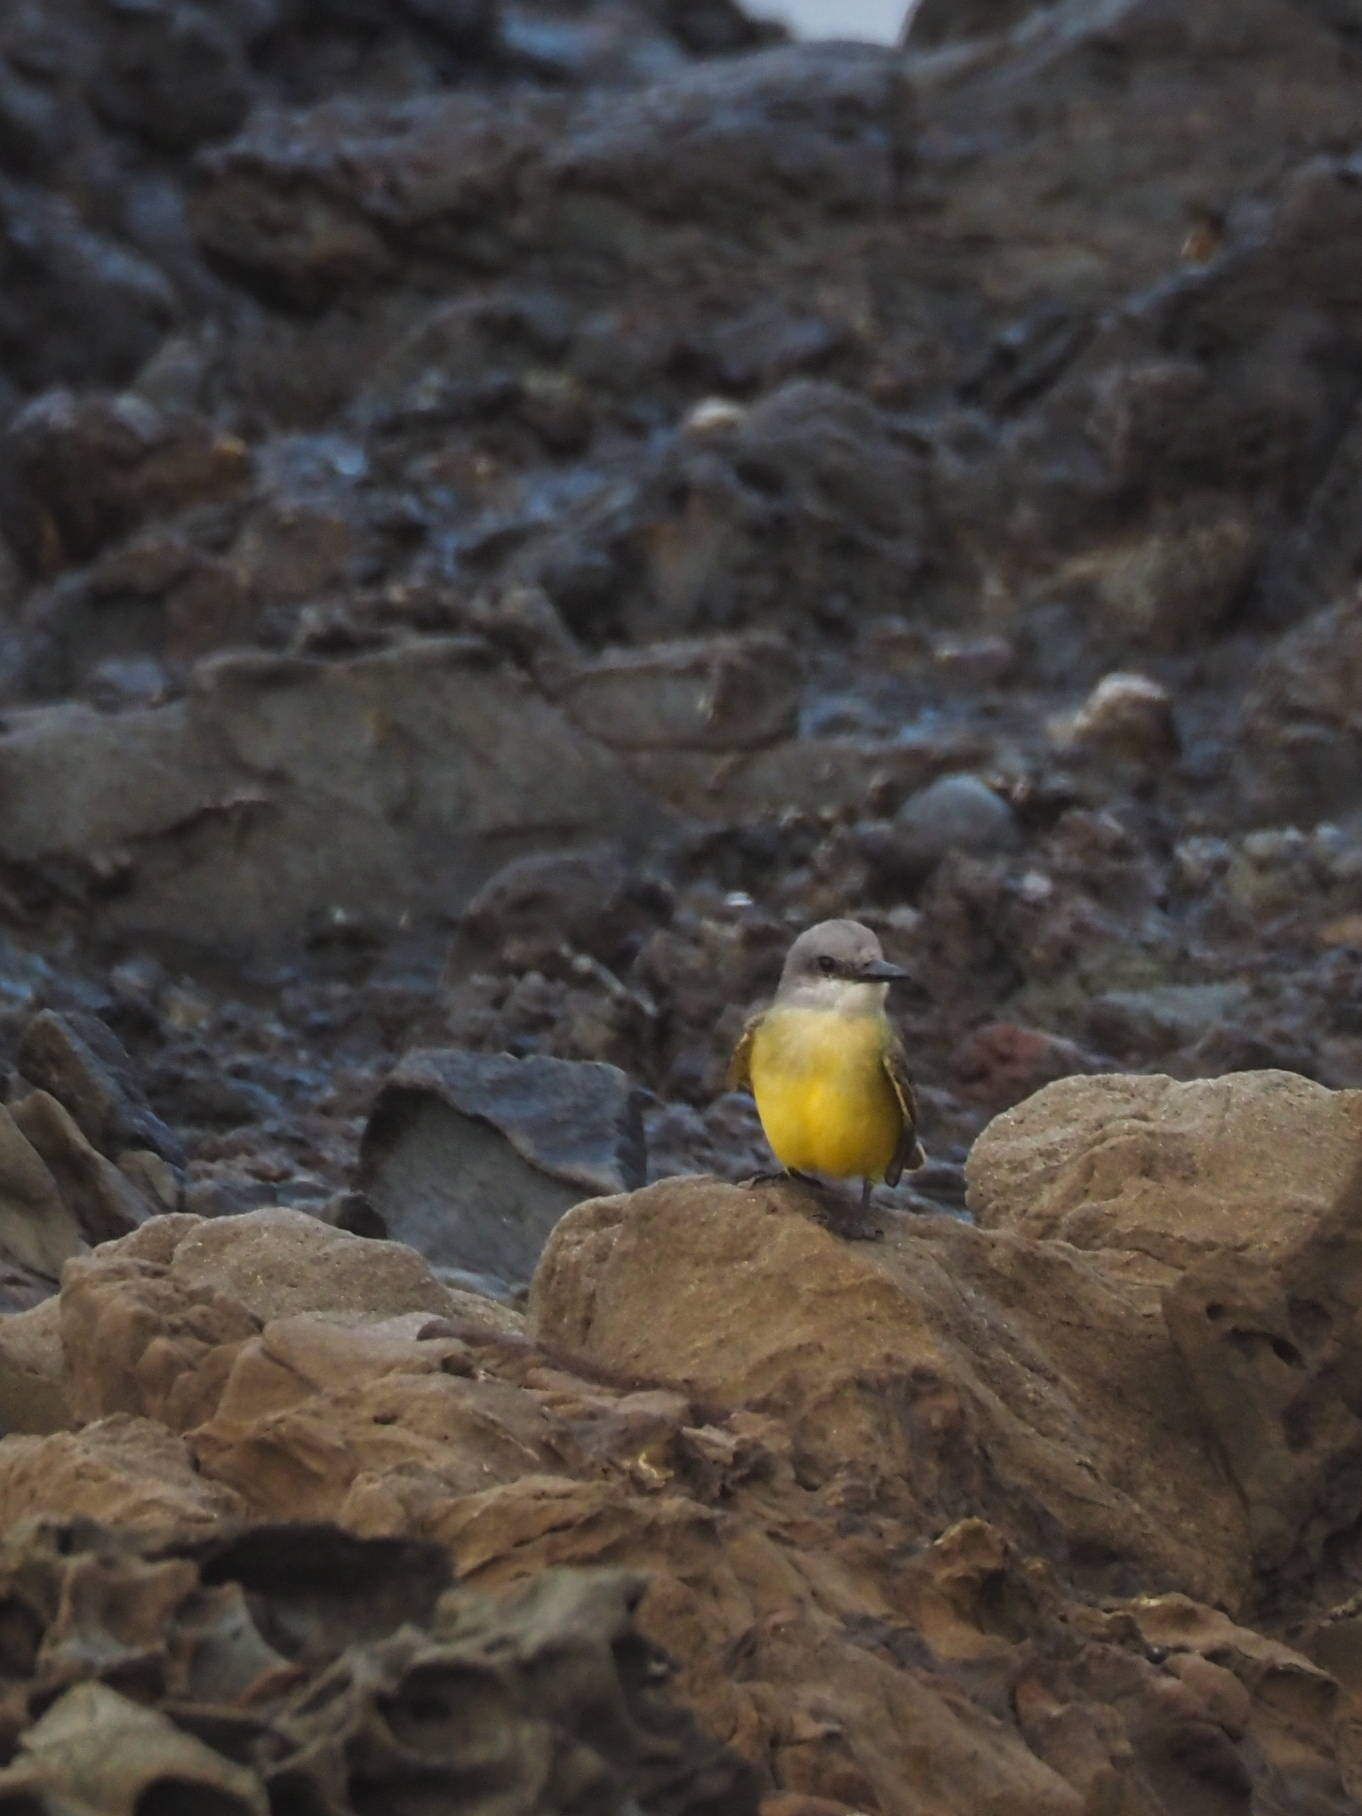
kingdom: Animalia
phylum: Chordata
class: Aves
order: Passeriformes
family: Tyrannidae
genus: Tyrannus
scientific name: Tyrannus melancholicus
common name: Tropical kingbird
